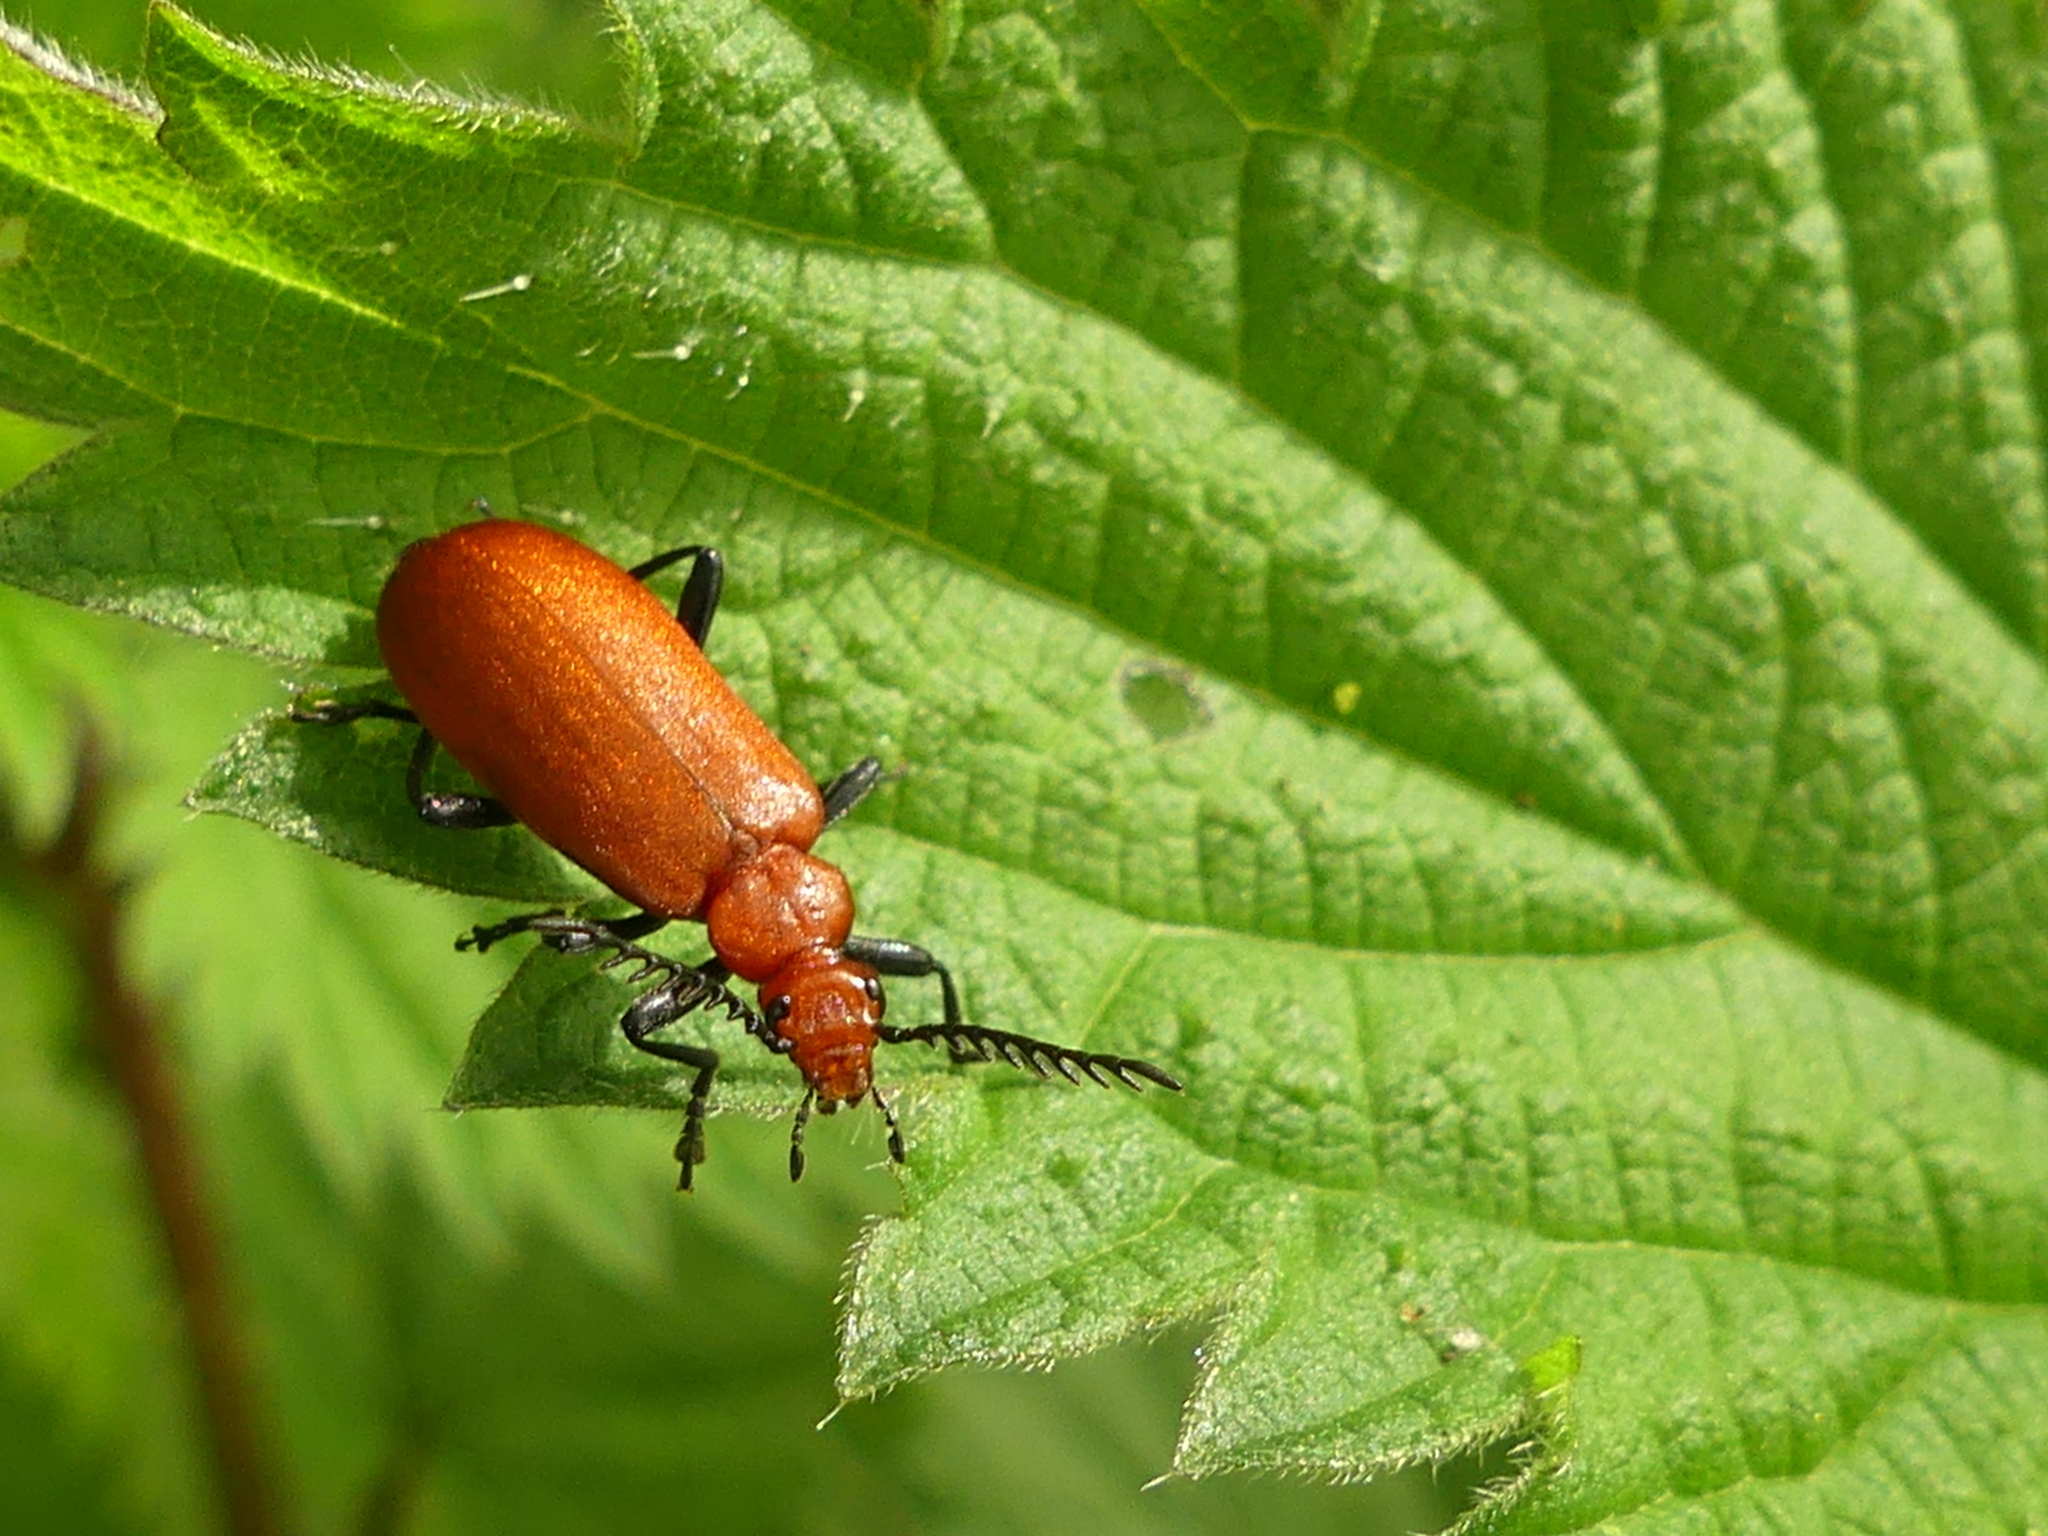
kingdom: Animalia
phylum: Arthropoda
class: Insecta
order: Coleoptera
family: Pyrochroidae
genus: Pyrochroa
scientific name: Pyrochroa serraticornis
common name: Red-headed cardinal beetle
